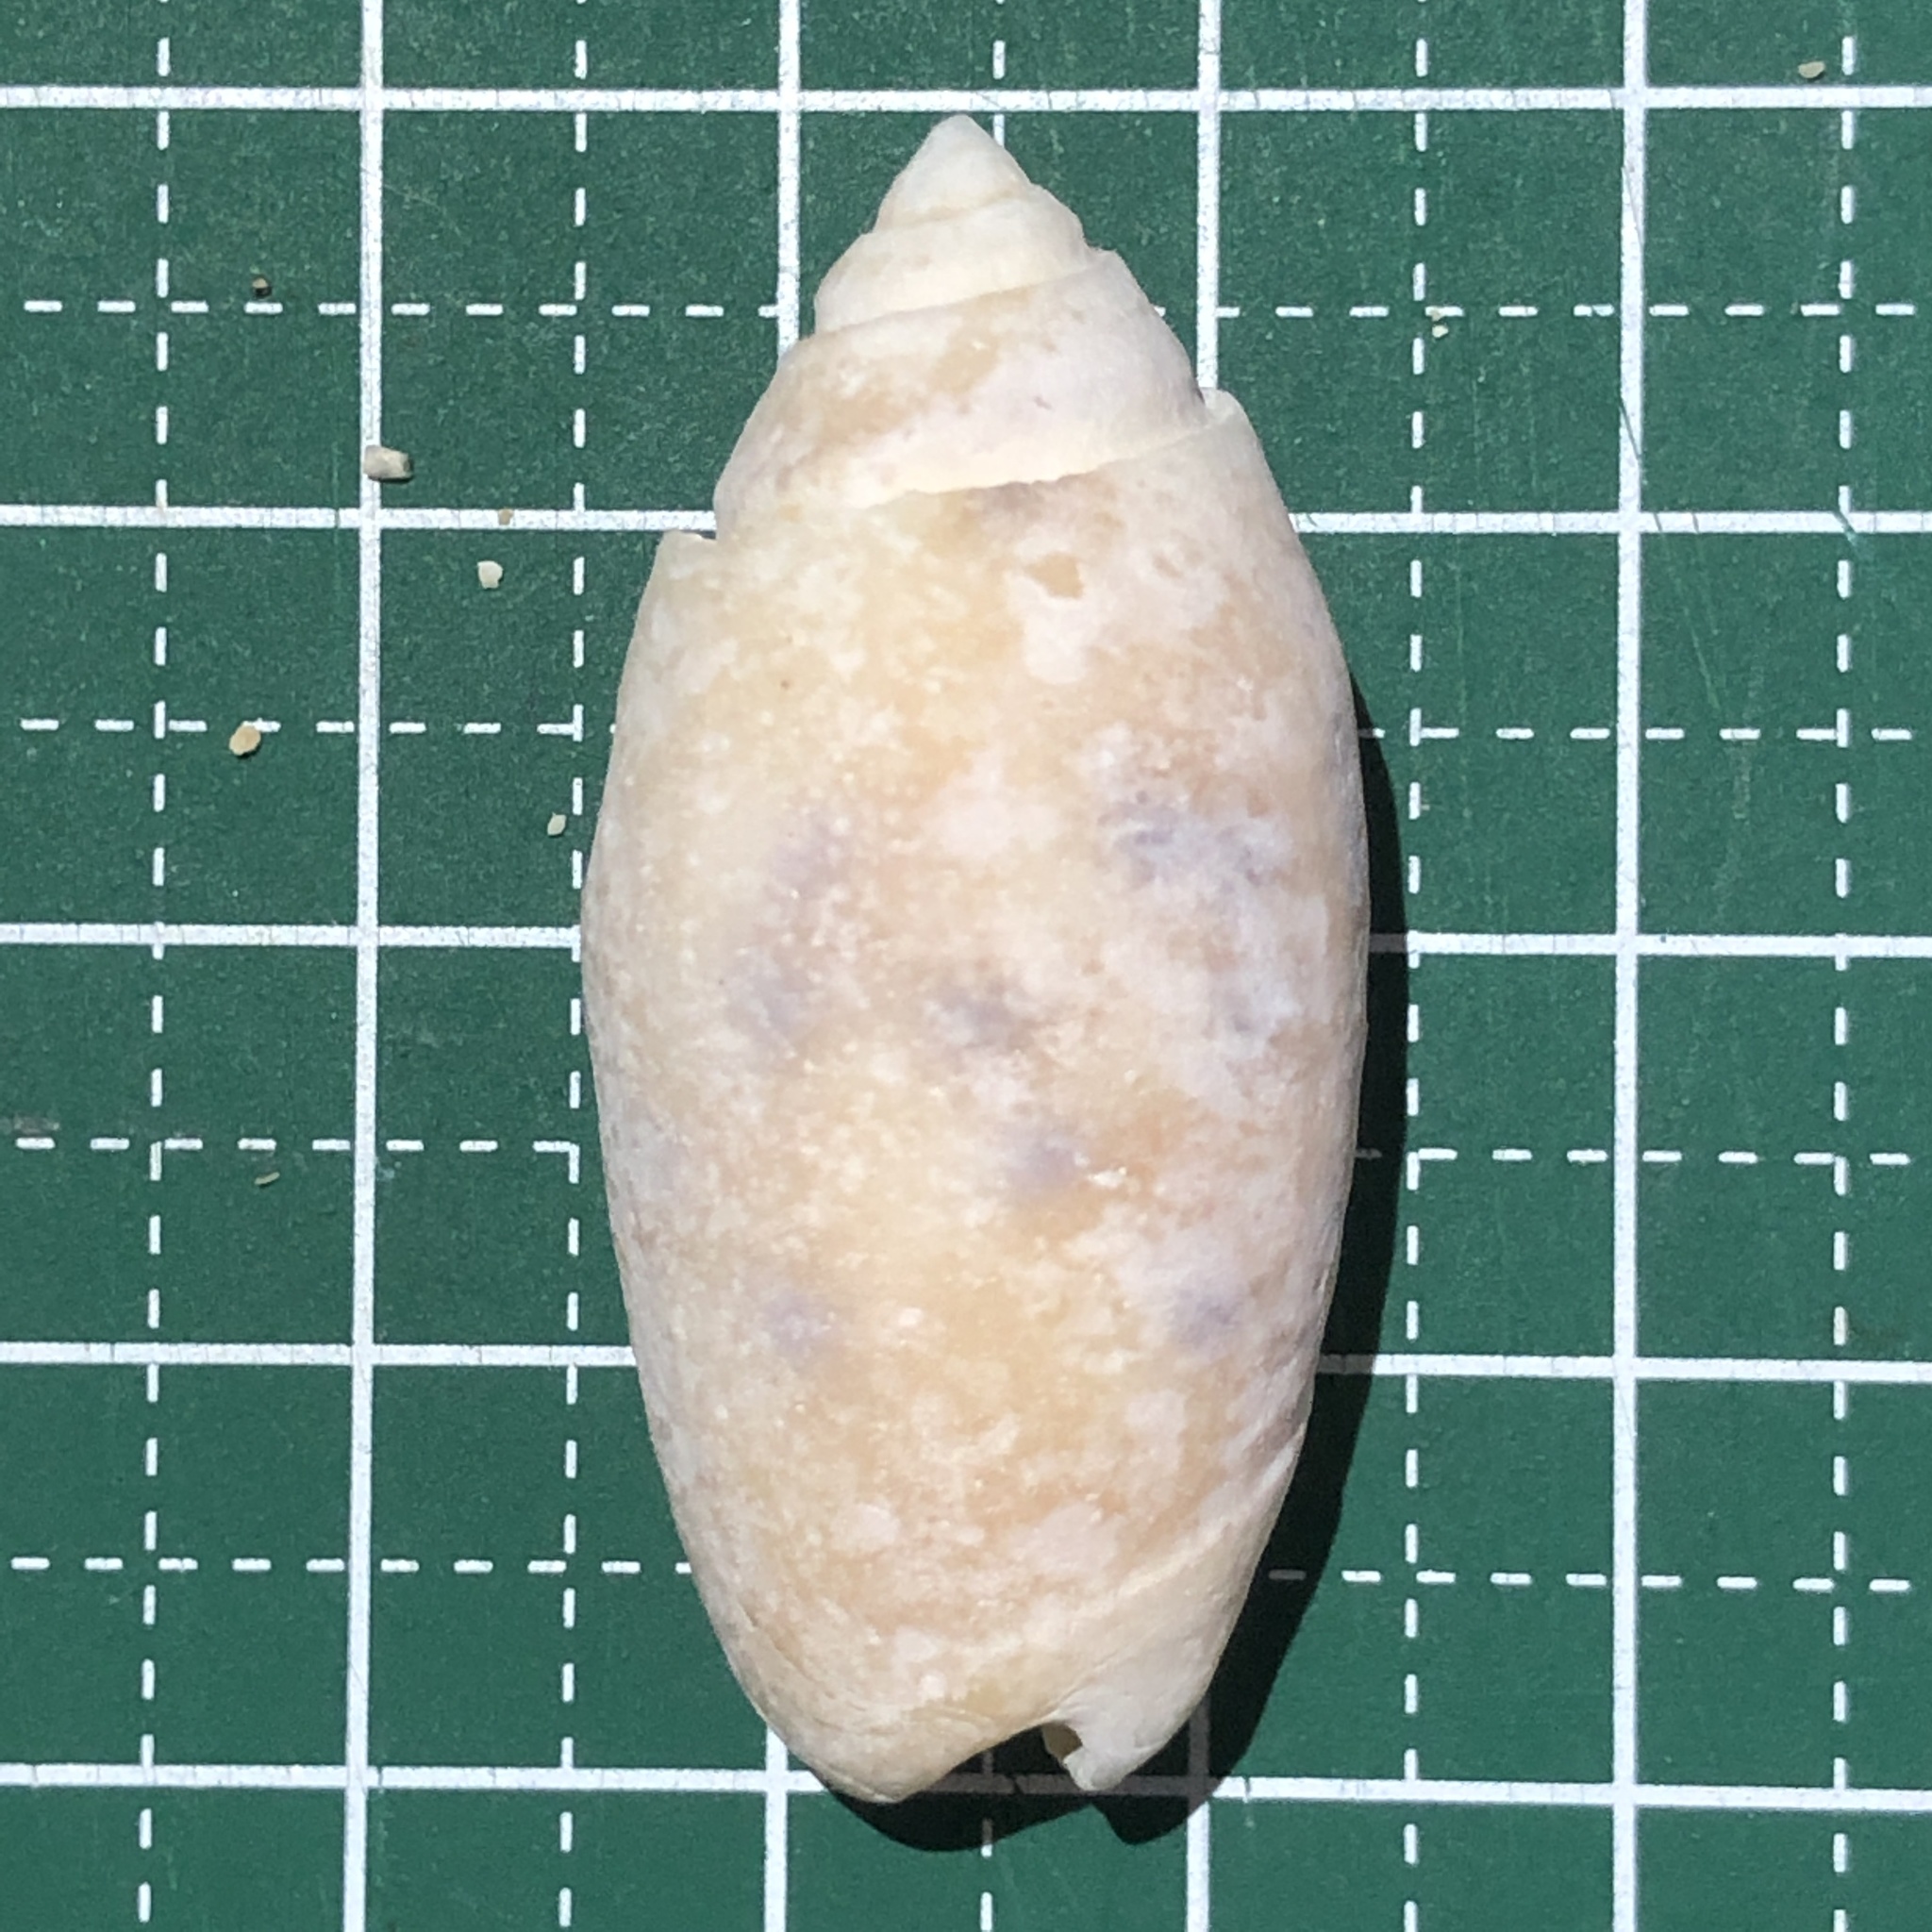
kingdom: Animalia
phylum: Mollusca
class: Gastropoda
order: Neogastropoda
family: Olividae
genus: Oliva
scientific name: Oliva amethystina
